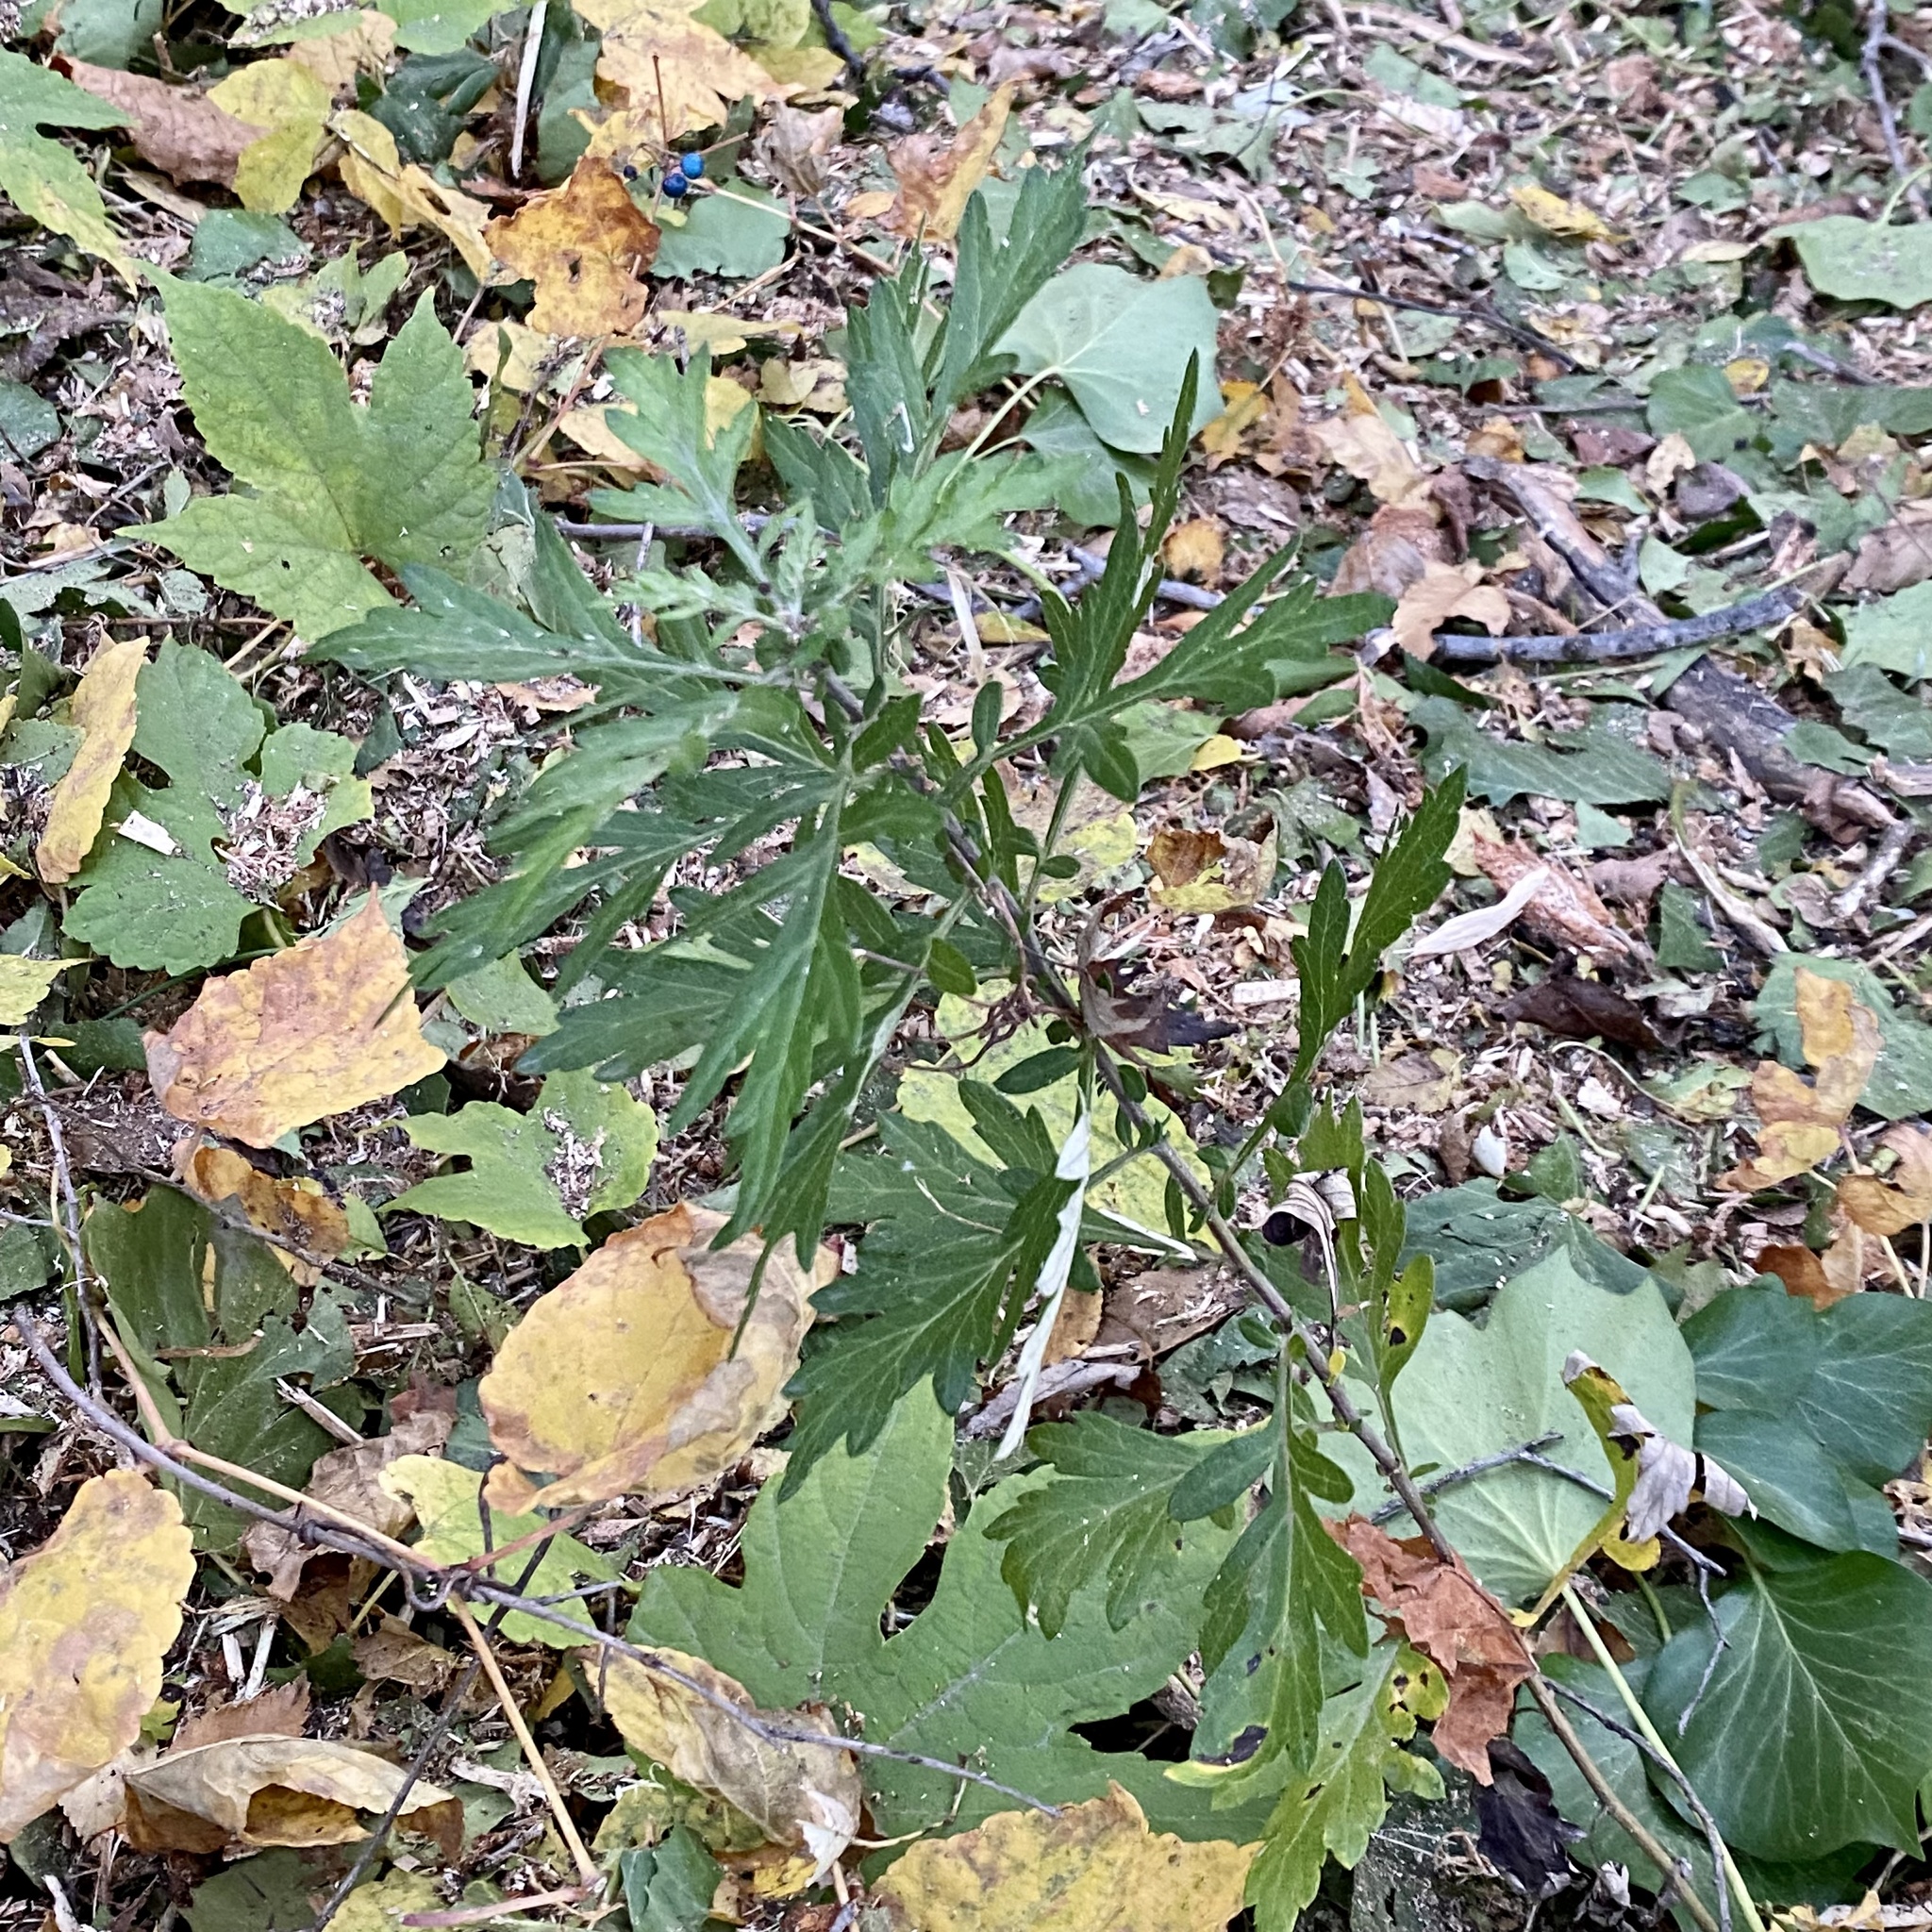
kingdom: Plantae
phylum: Tracheophyta
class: Magnoliopsida
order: Asterales
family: Asteraceae
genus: Artemisia
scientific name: Artemisia vulgaris
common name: Mugwort
